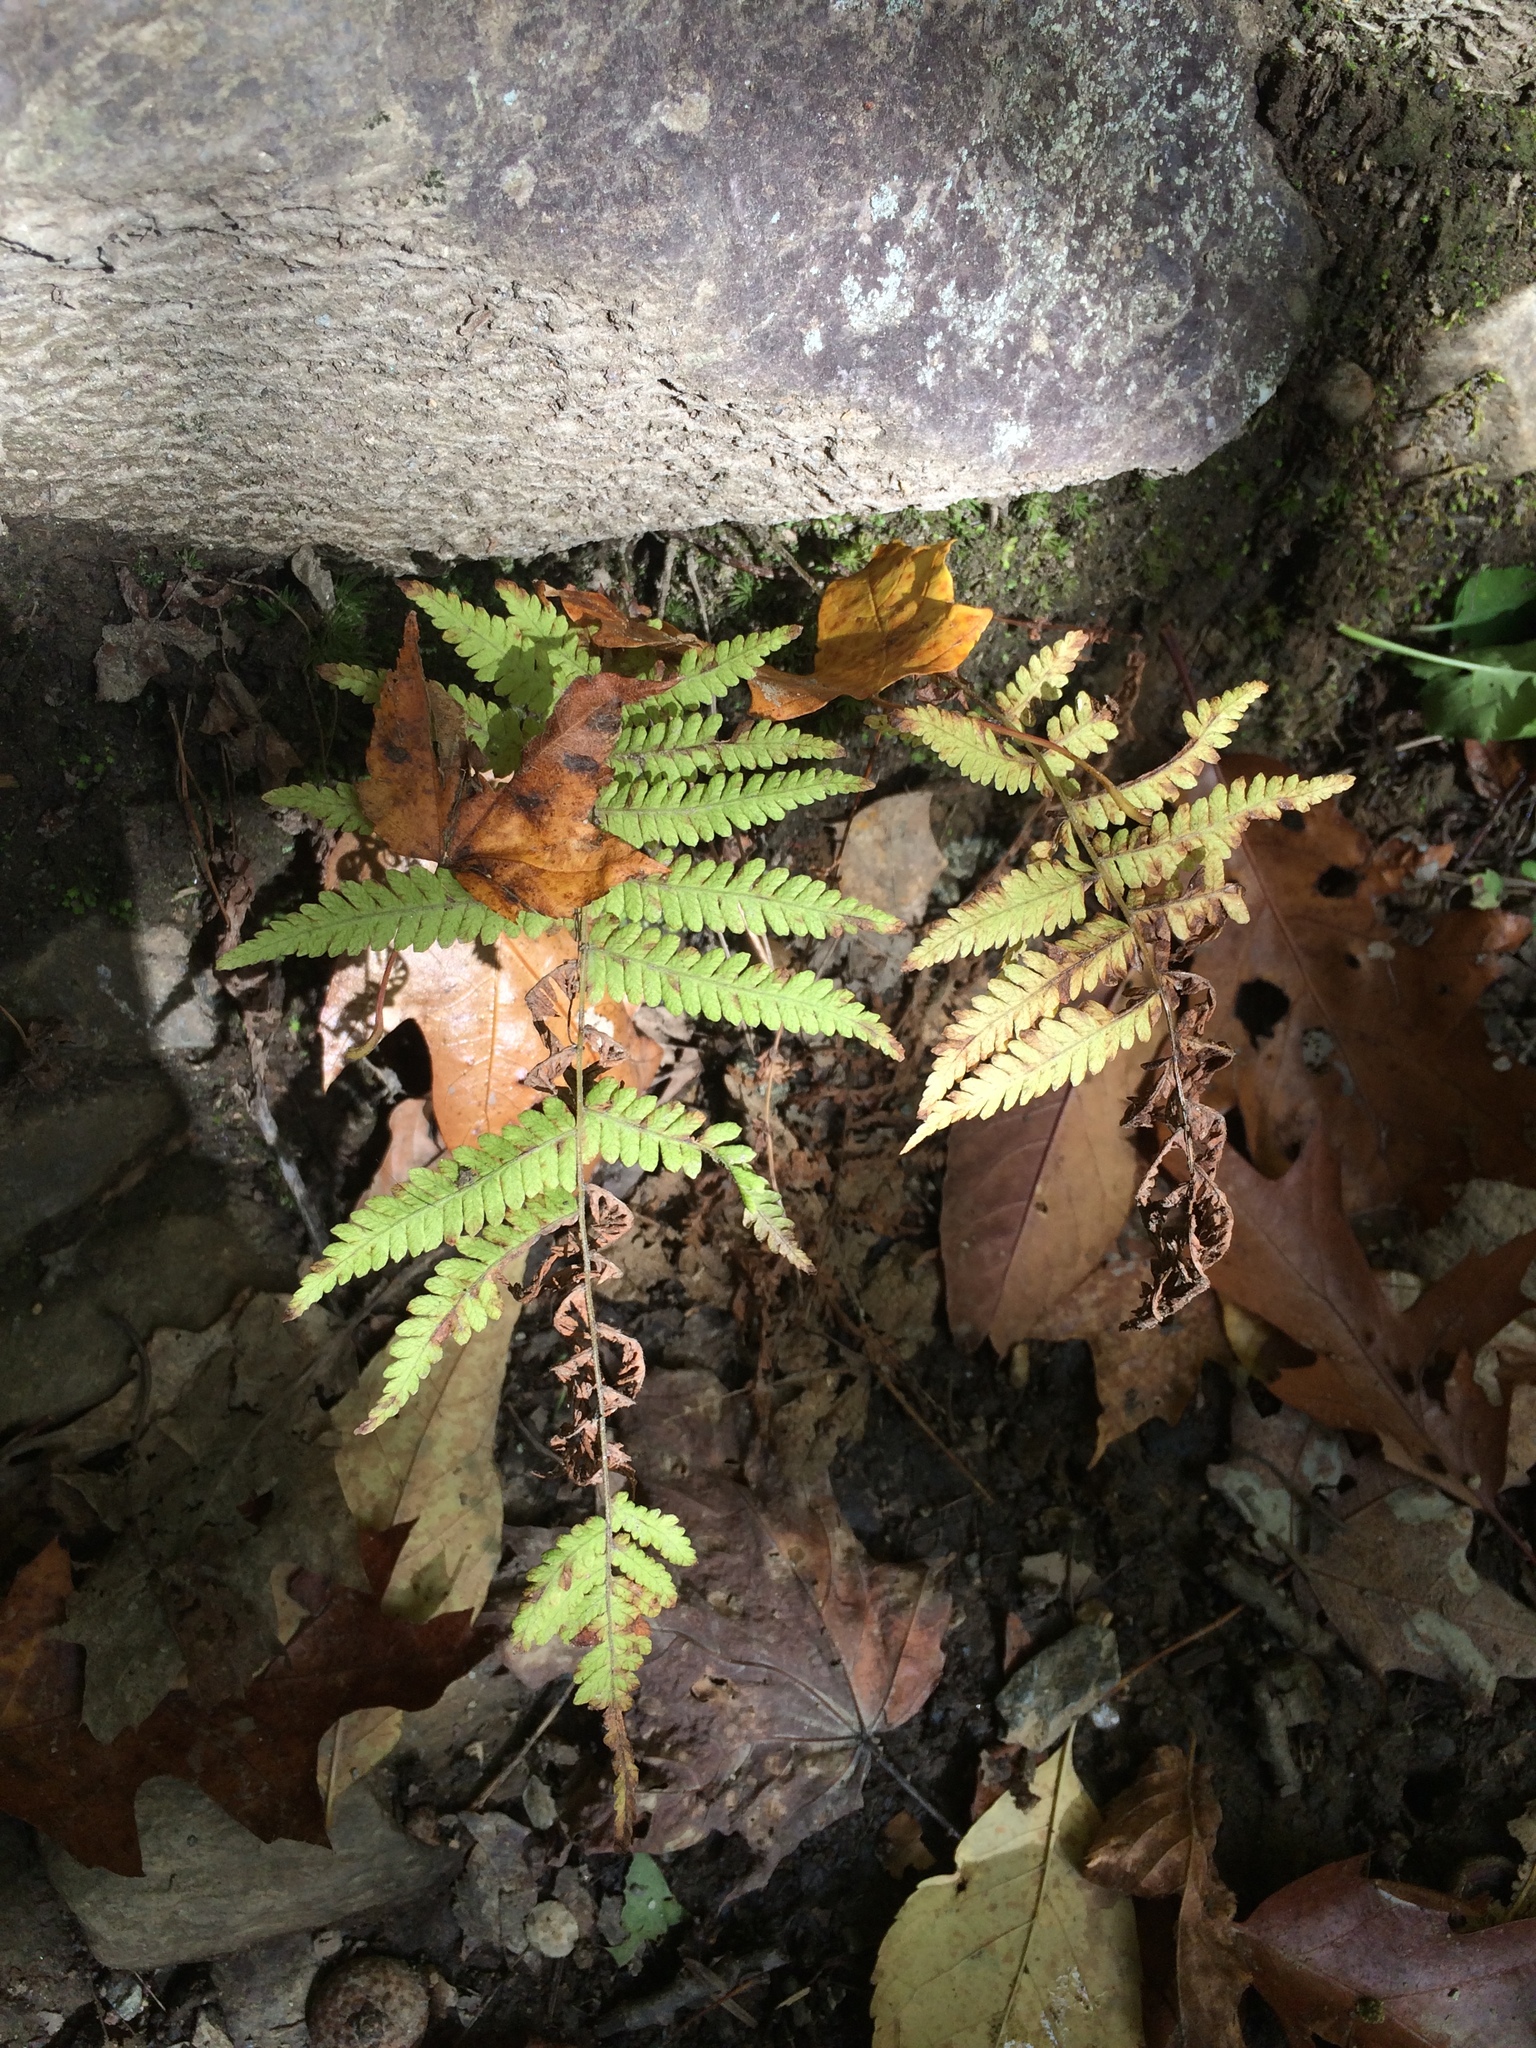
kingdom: Plantae
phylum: Tracheophyta
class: Polypodiopsida
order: Polypodiales
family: Thelypteridaceae
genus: Amauropelta
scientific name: Amauropelta noveboracensis
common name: New york fern
